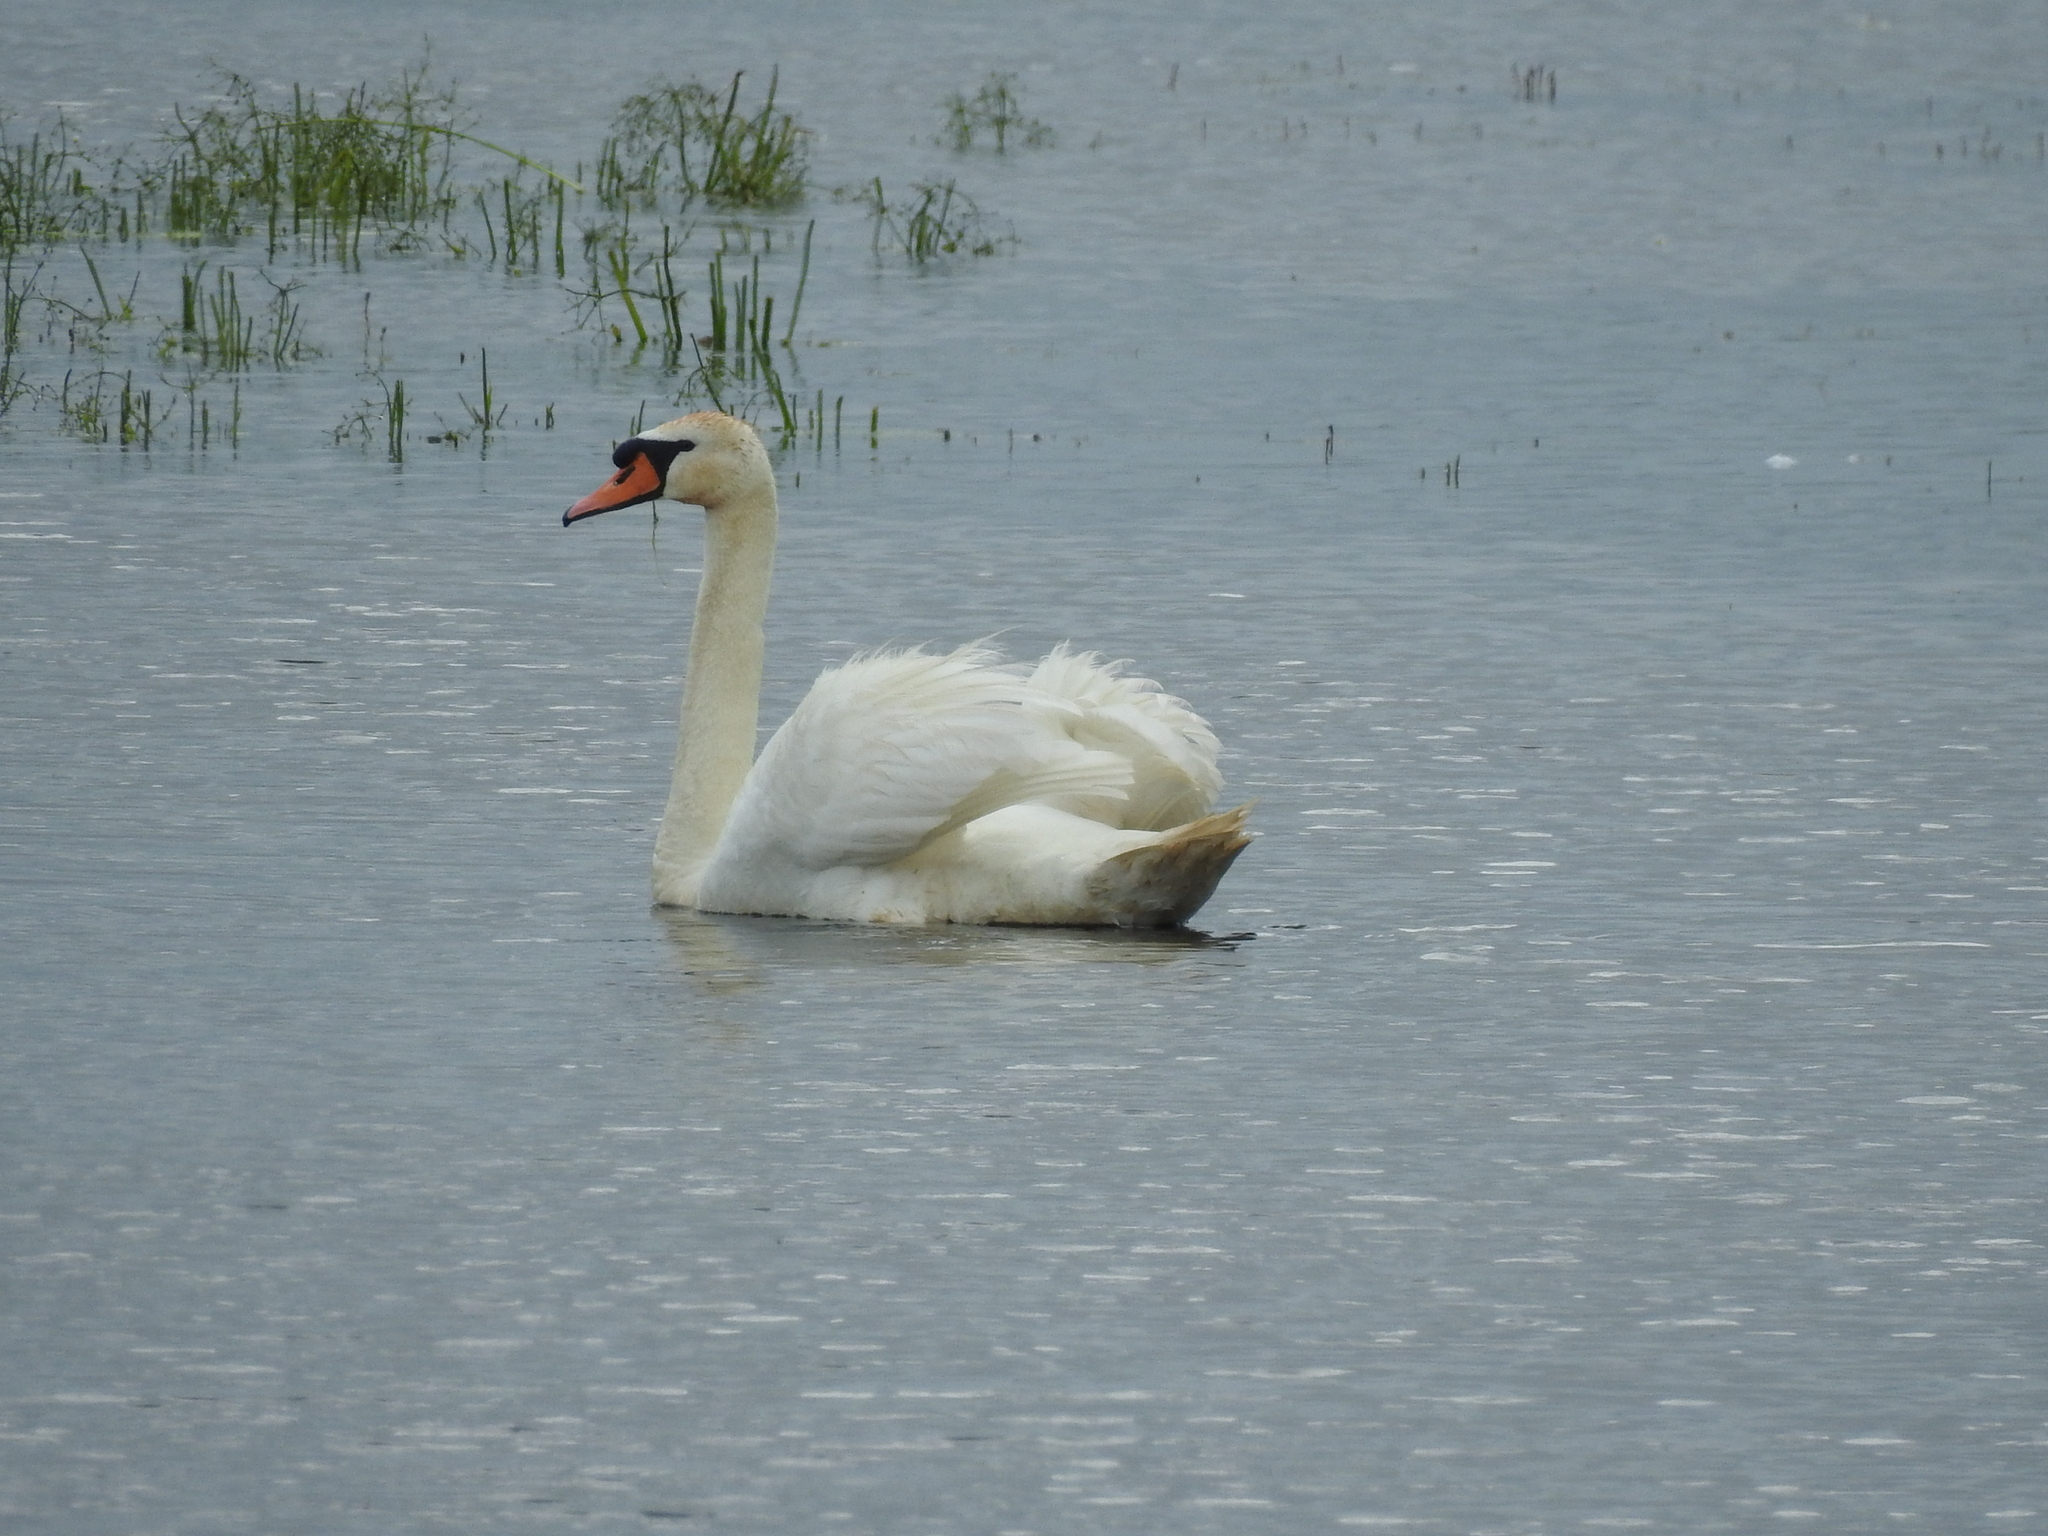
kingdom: Animalia
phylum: Chordata
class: Aves
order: Anseriformes
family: Anatidae
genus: Cygnus
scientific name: Cygnus olor
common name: Mute swan
